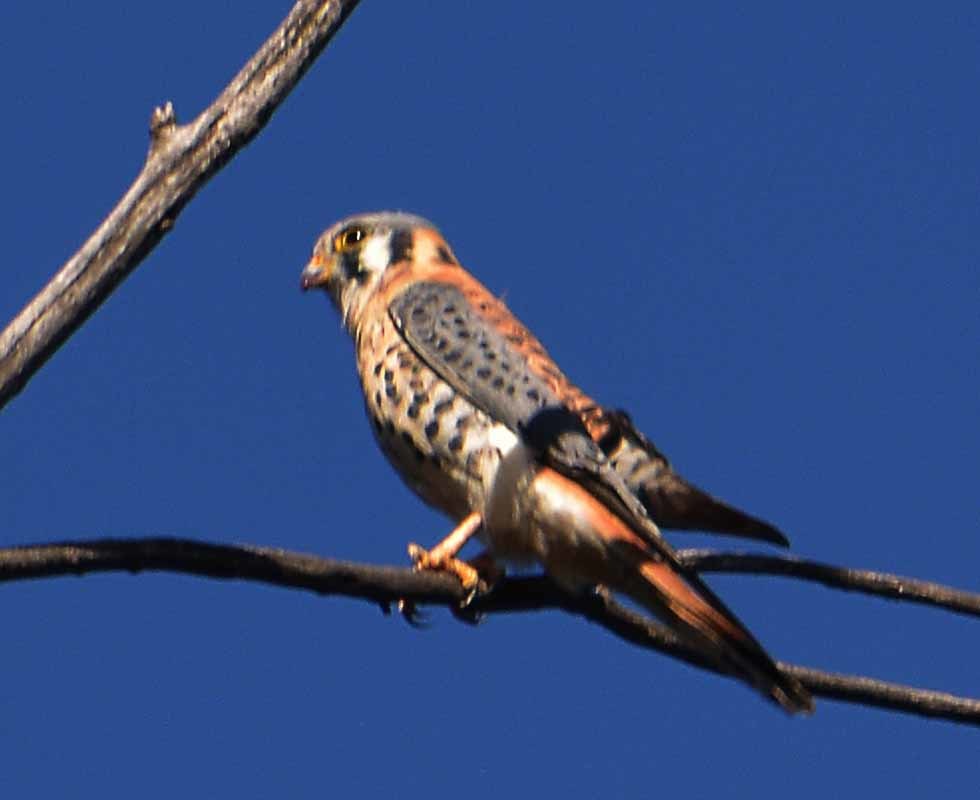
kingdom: Animalia
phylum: Chordata
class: Aves
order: Falconiformes
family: Falconidae
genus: Falco
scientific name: Falco sparverius
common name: American kestrel
